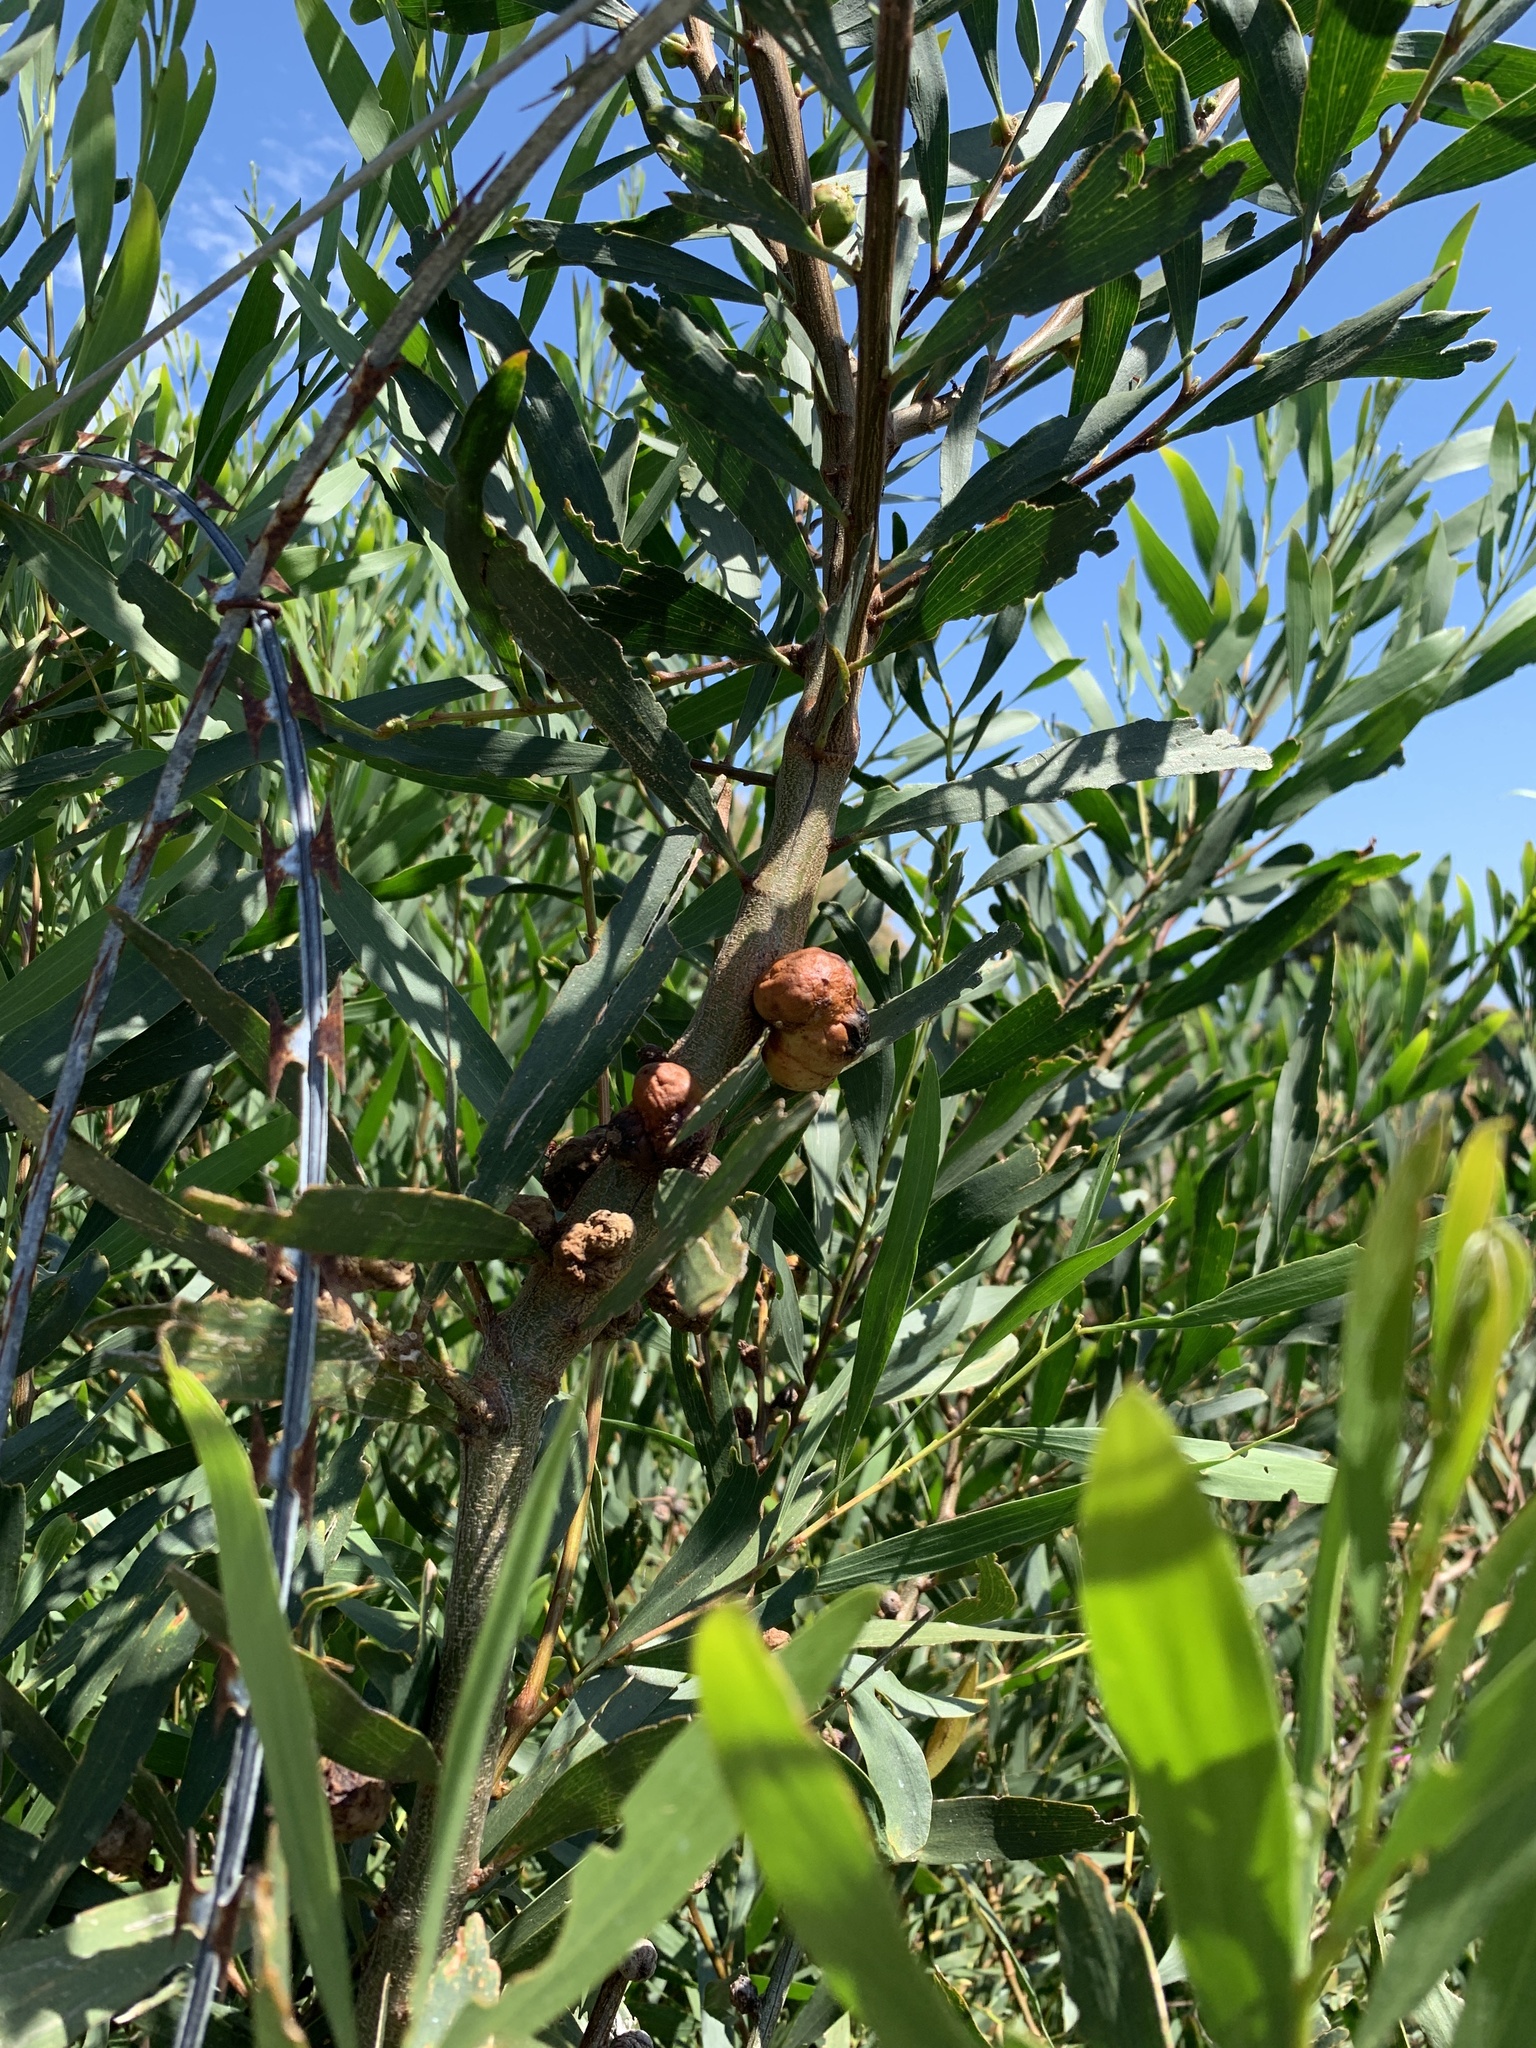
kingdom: Animalia
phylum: Arthropoda
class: Insecta
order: Hymenoptera
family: Pteromalidae
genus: Trichilogaster
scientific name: Trichilogaster acaciaelongifoliae
